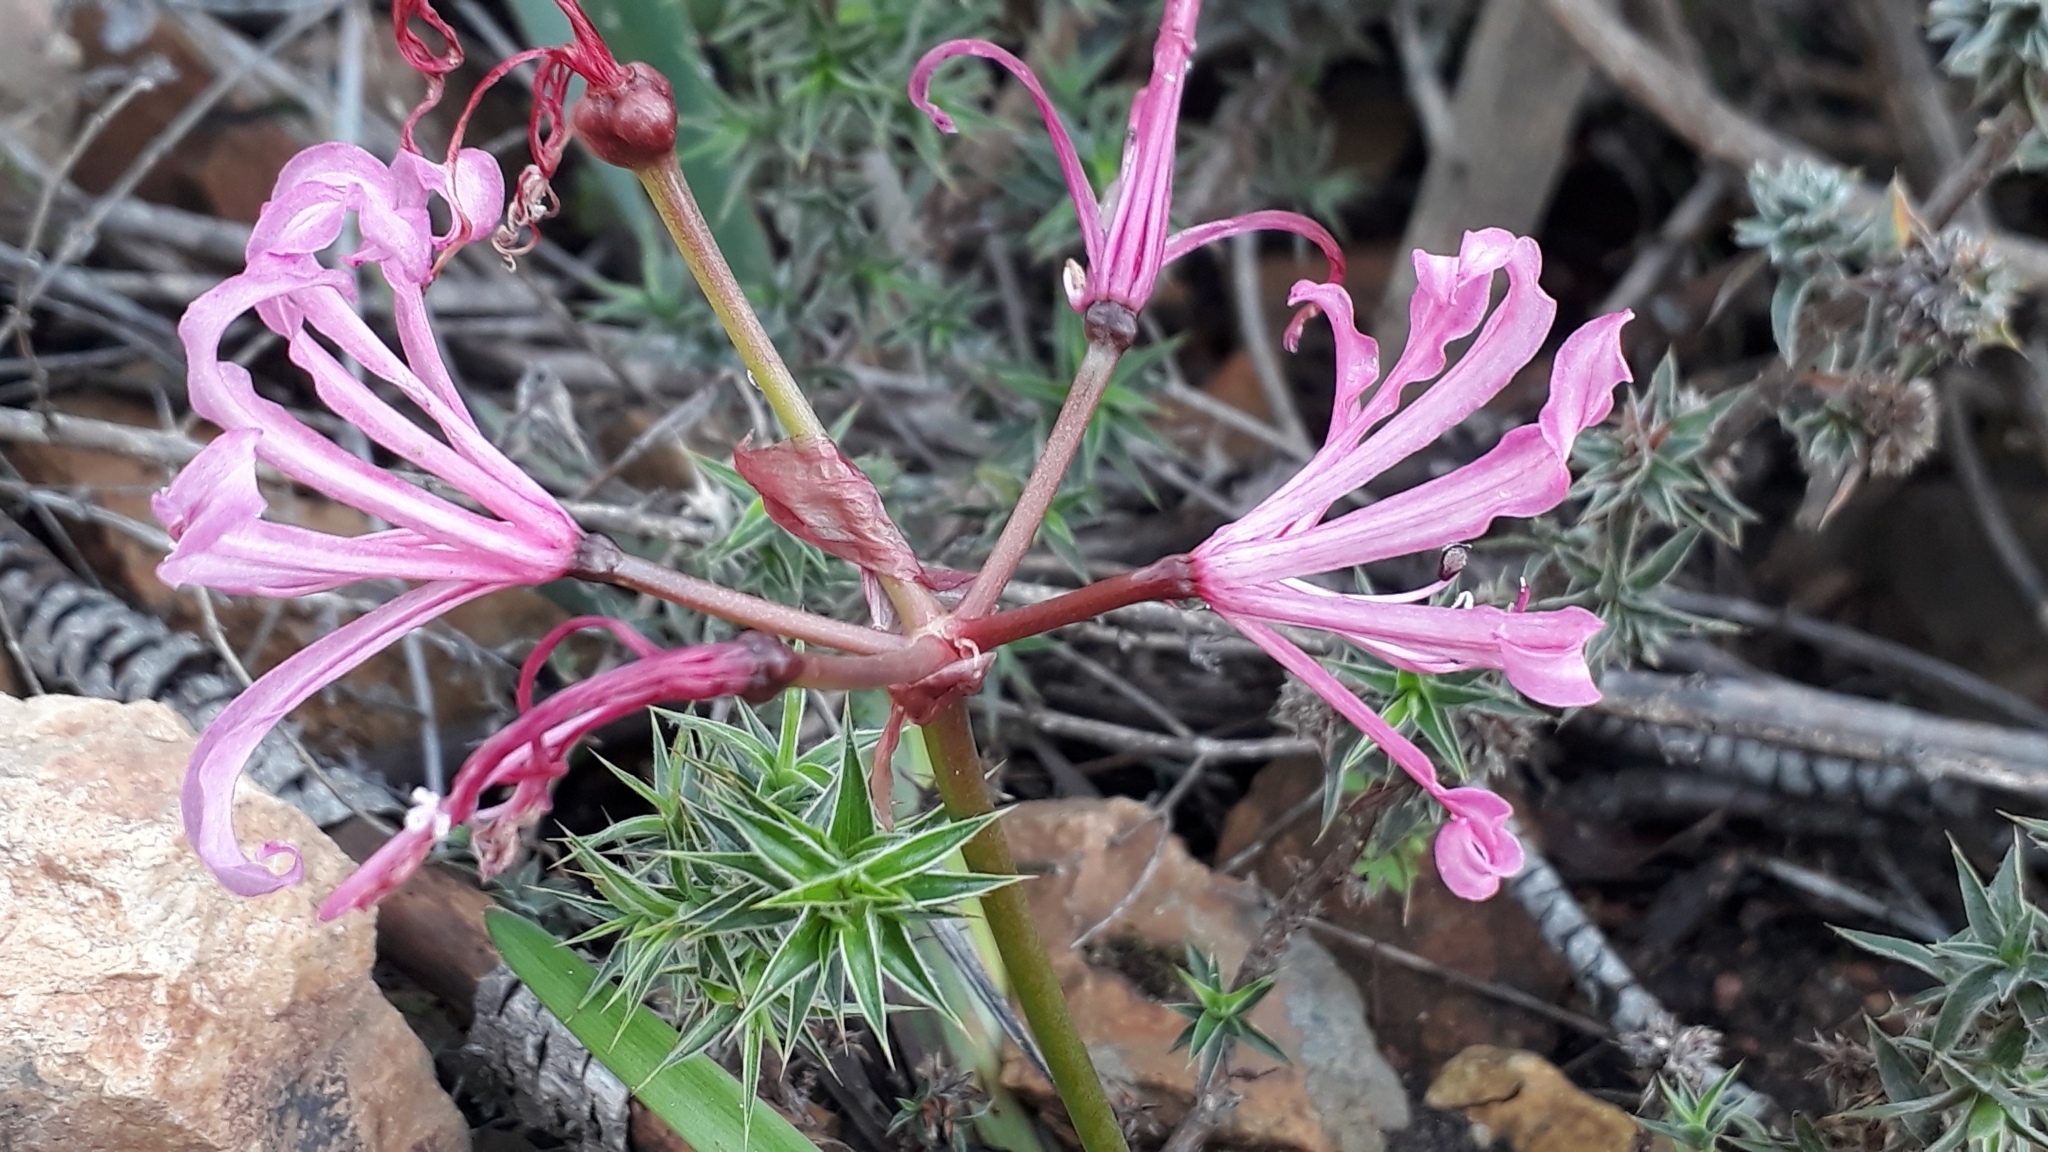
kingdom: Plantae
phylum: Tracheophyta
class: Liliopsida
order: Asparagales
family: Amaryllidaceae
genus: Nerine
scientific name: Nerine humilis
